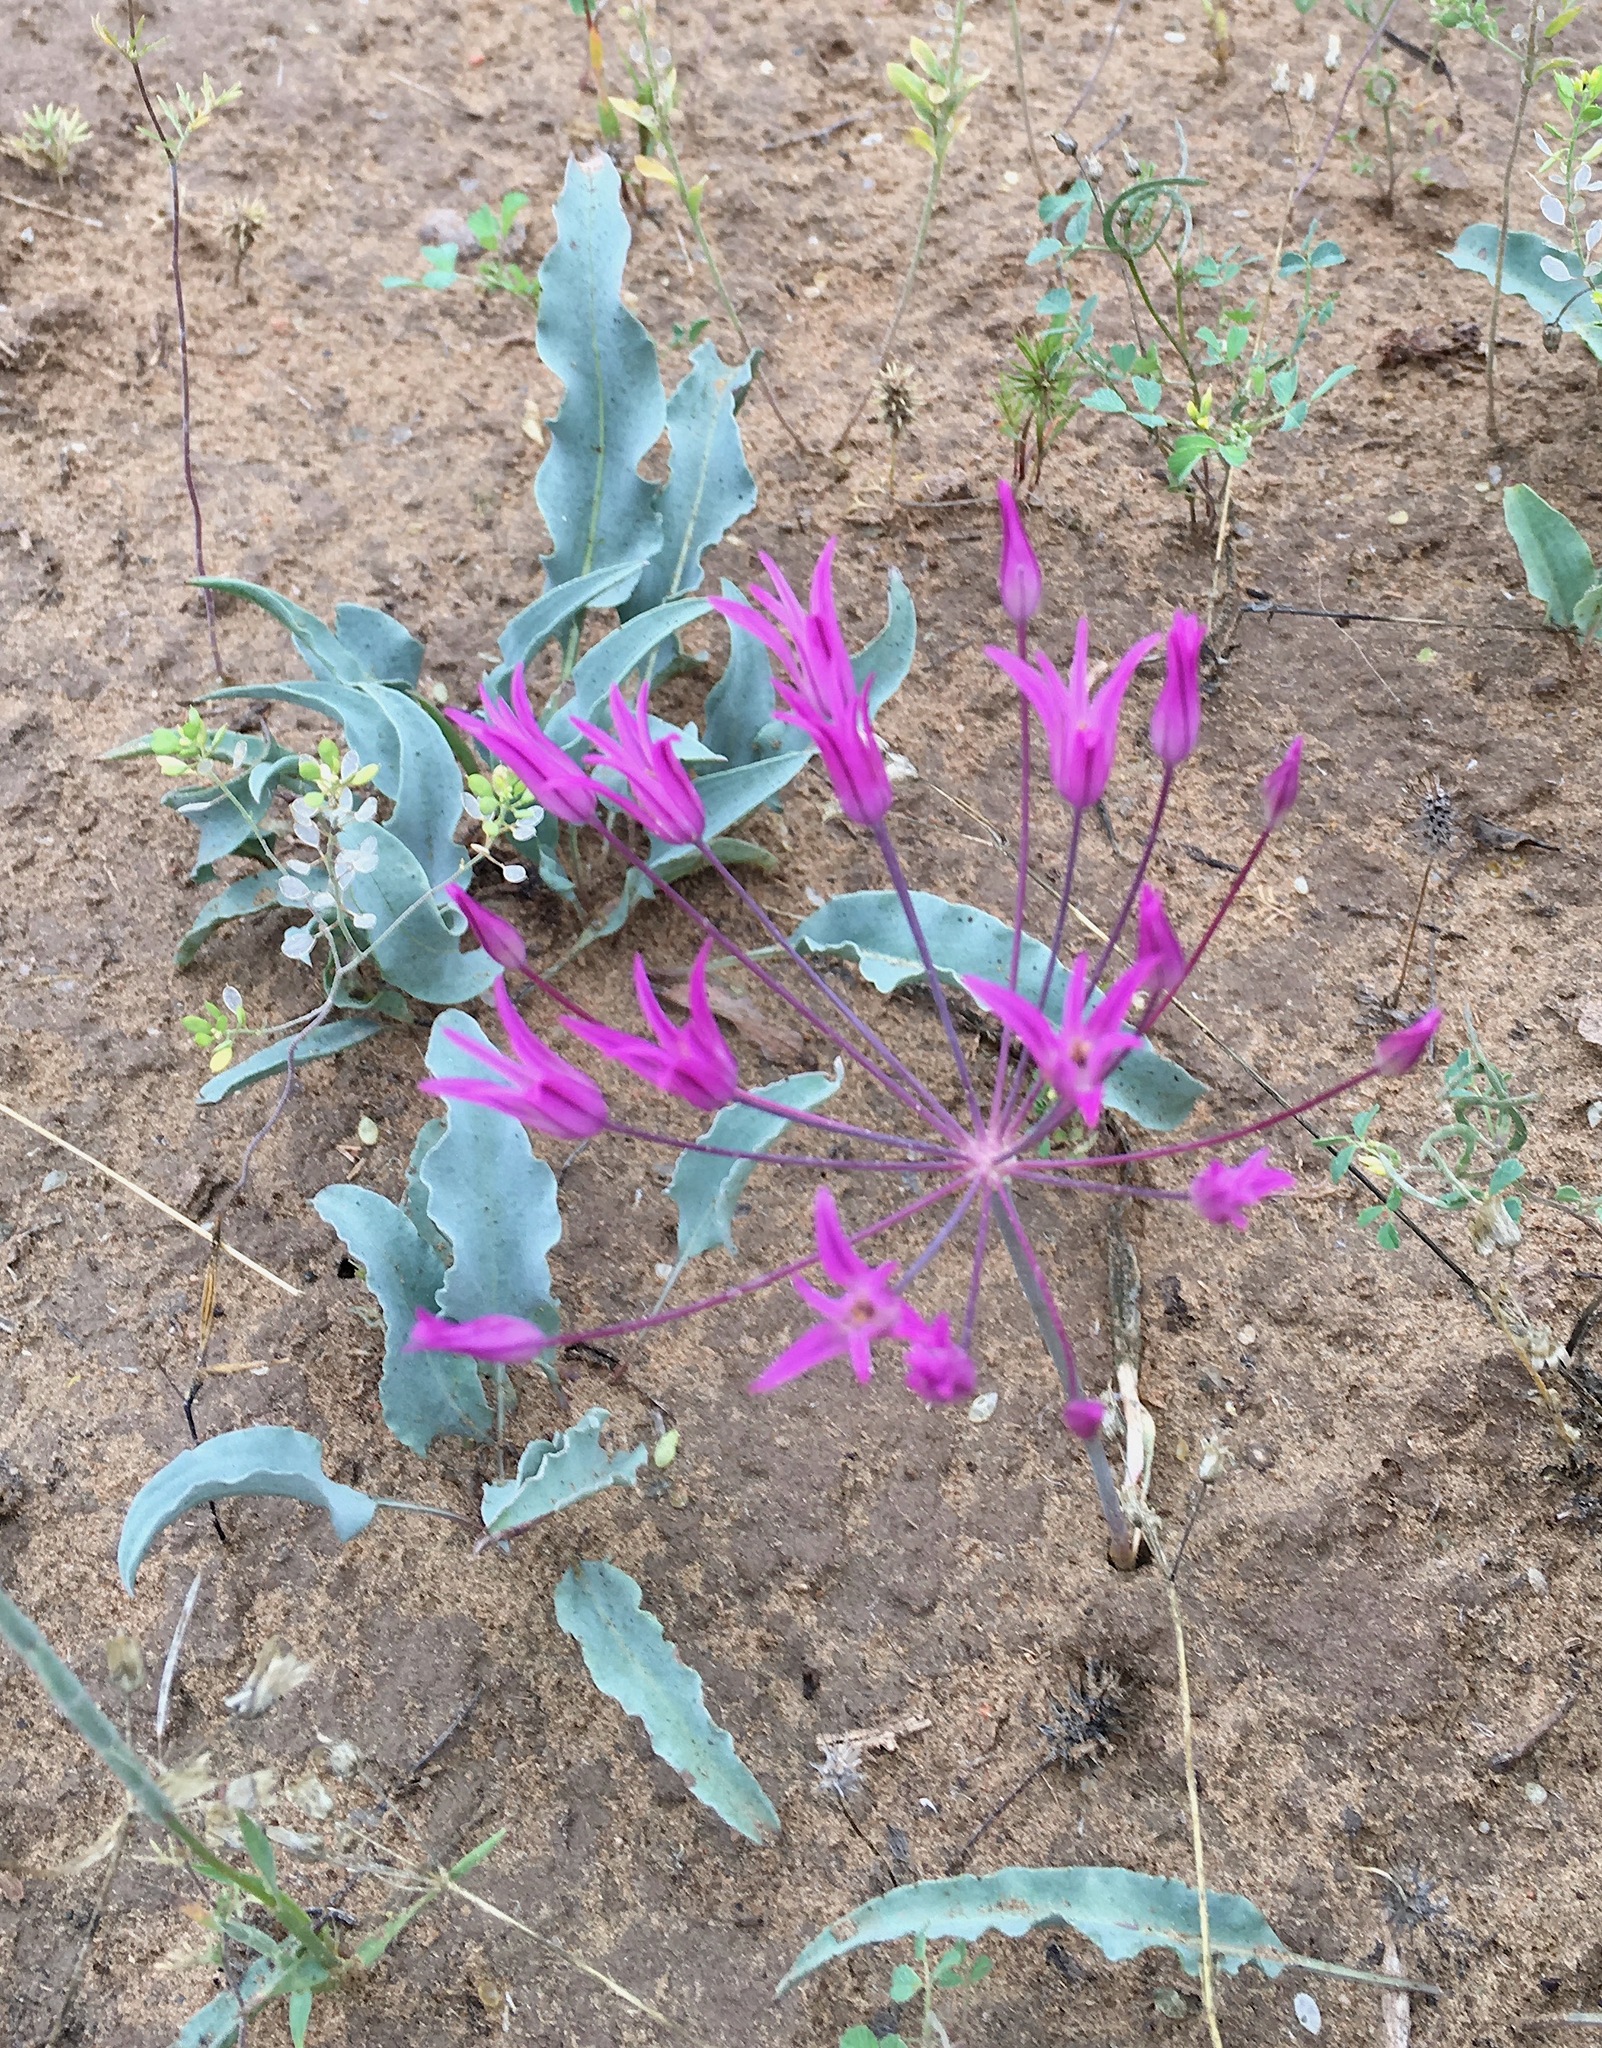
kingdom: Plantae
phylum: Tracheophyta
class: Liliopsida
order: Asparagales
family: Amaryllidaceae
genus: Allium
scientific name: Allium iliense
